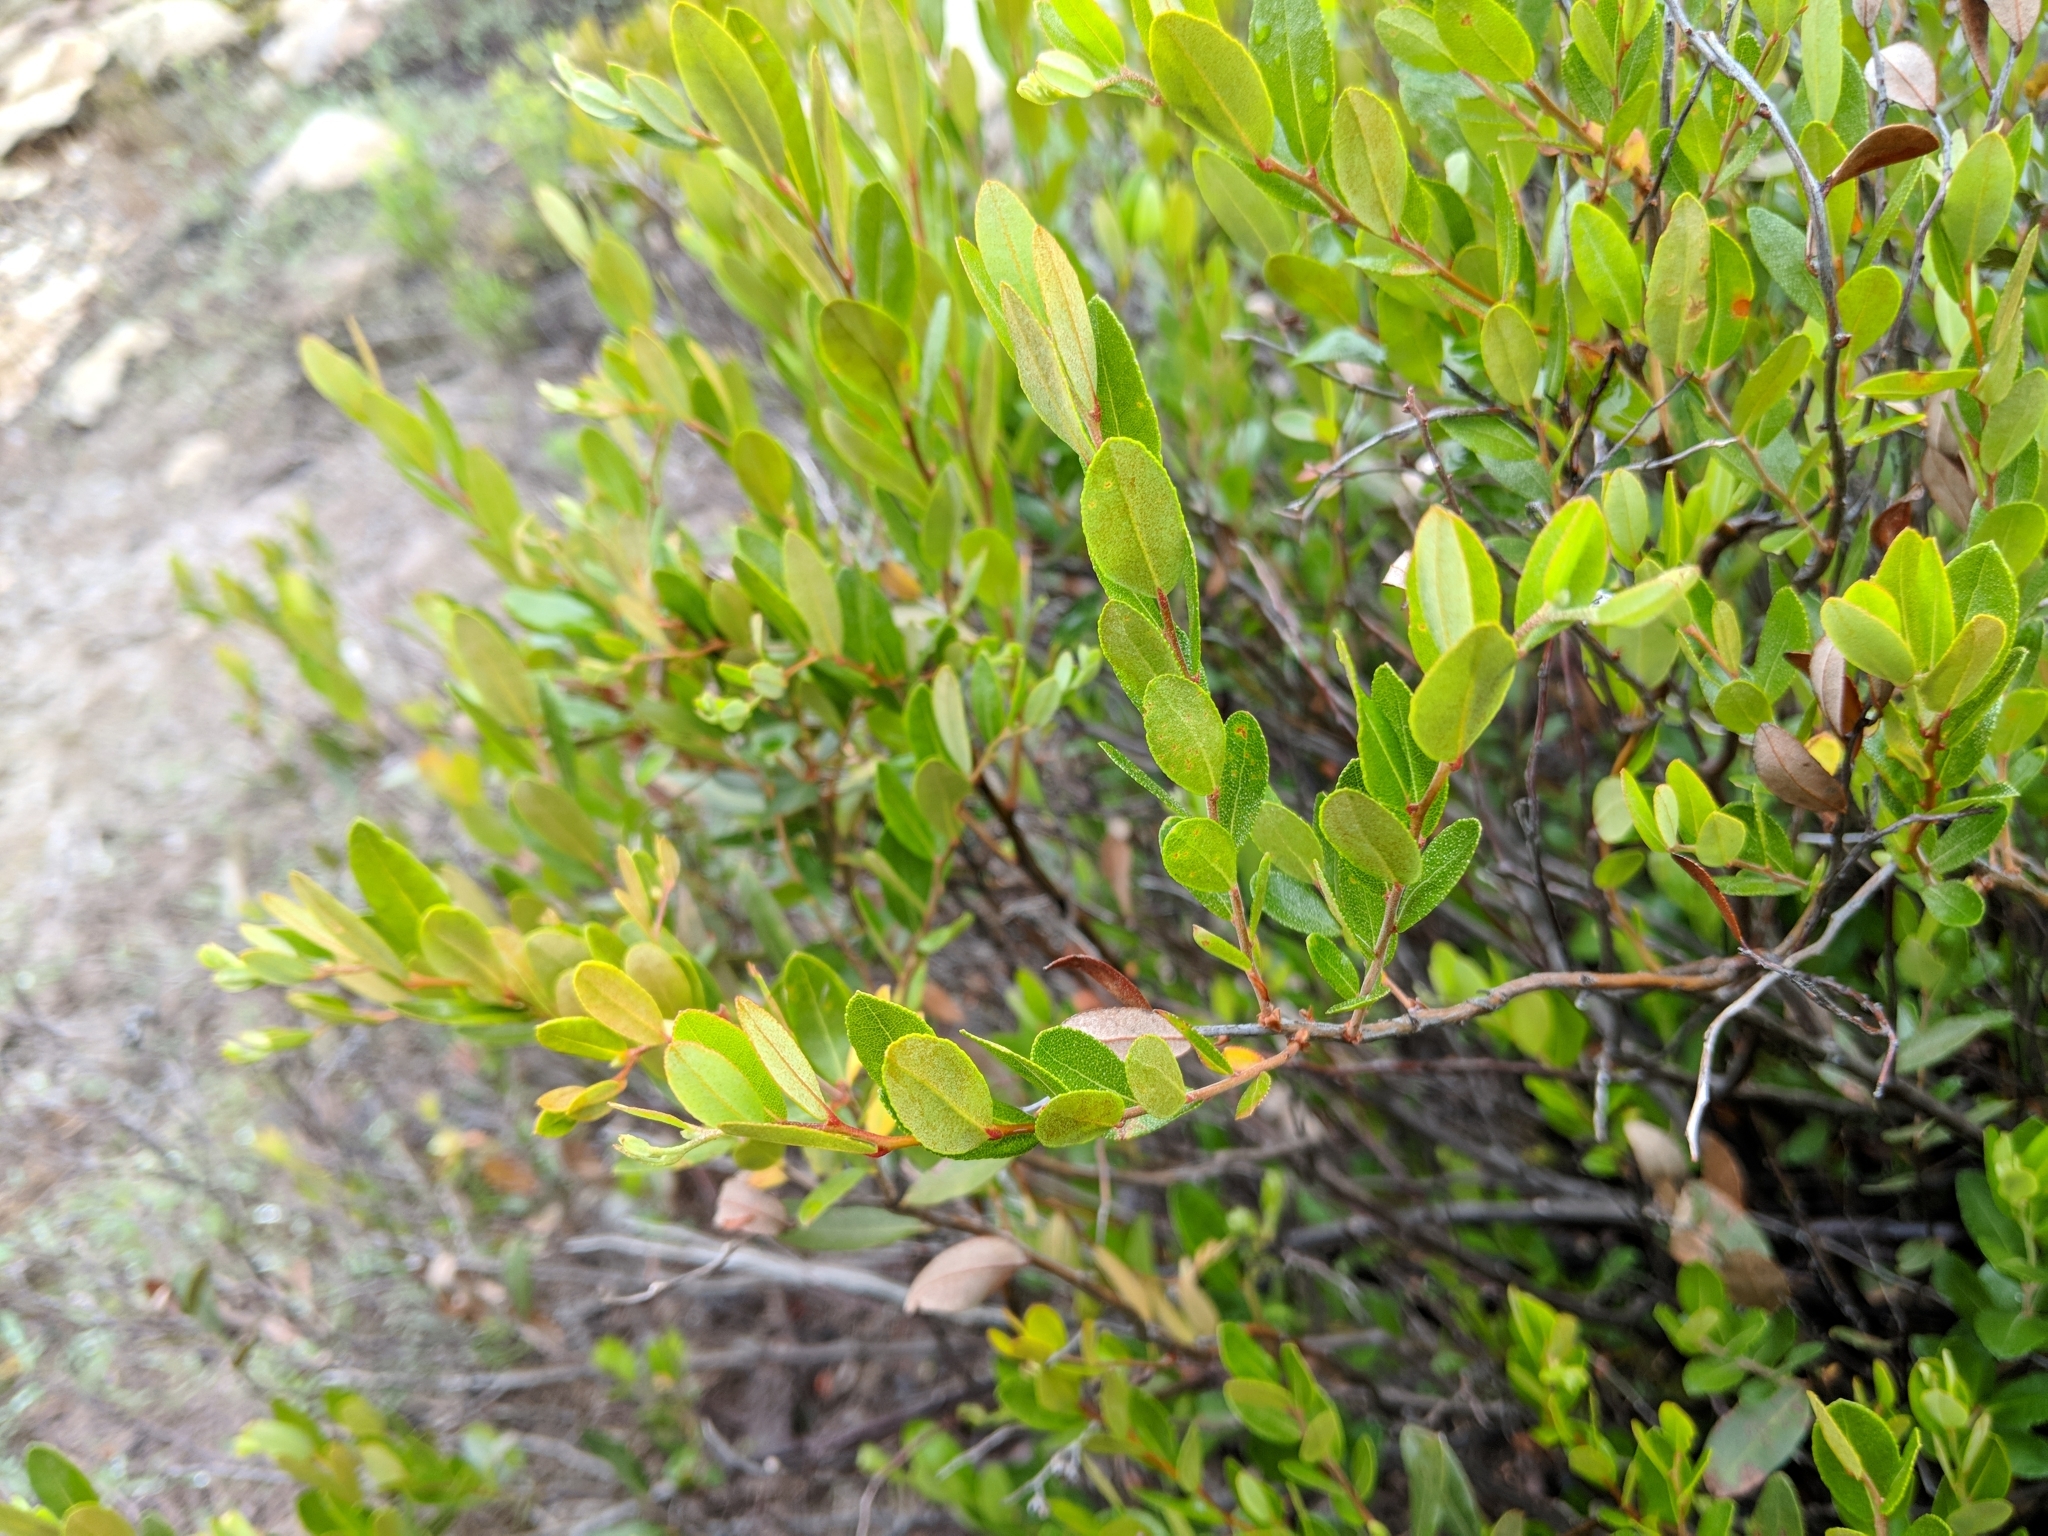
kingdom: Plantae
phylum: Tracheophyta
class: Magnoliopsida
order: Ericales
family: Ericaceae
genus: Chamaedaphne
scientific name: Chamaedaphne calyculata
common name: Leatherleaf
